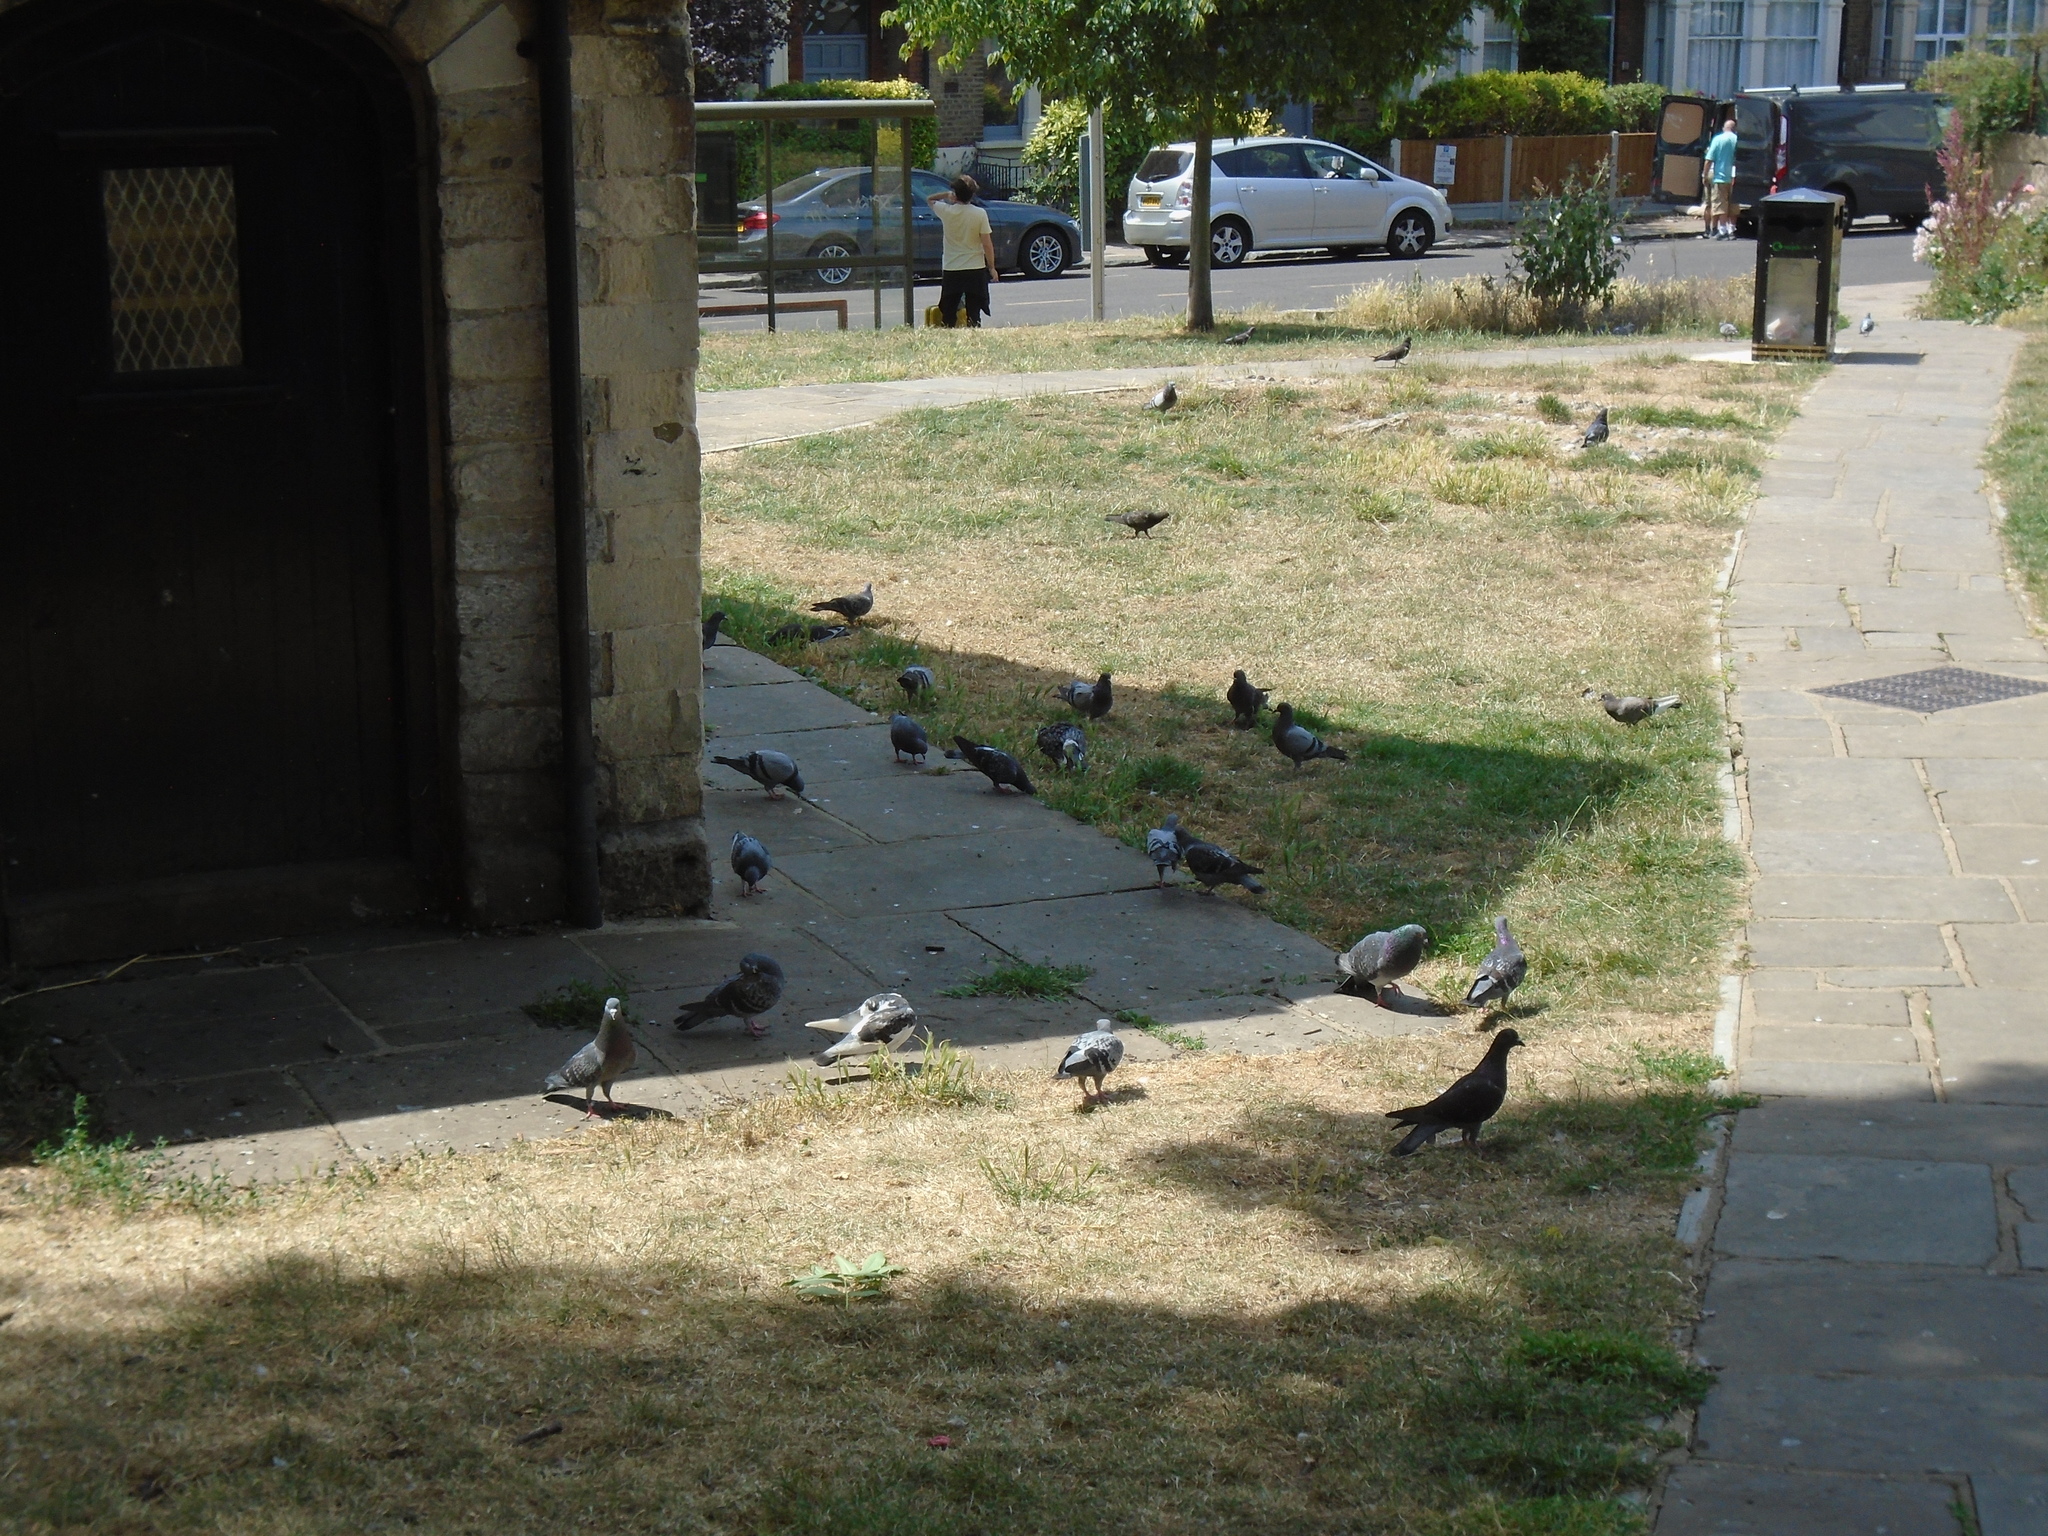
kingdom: Animalia
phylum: Chordata
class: Aves
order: Columbiformes
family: Columbidae
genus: Columba
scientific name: Columba livia
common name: Rock pigeon
